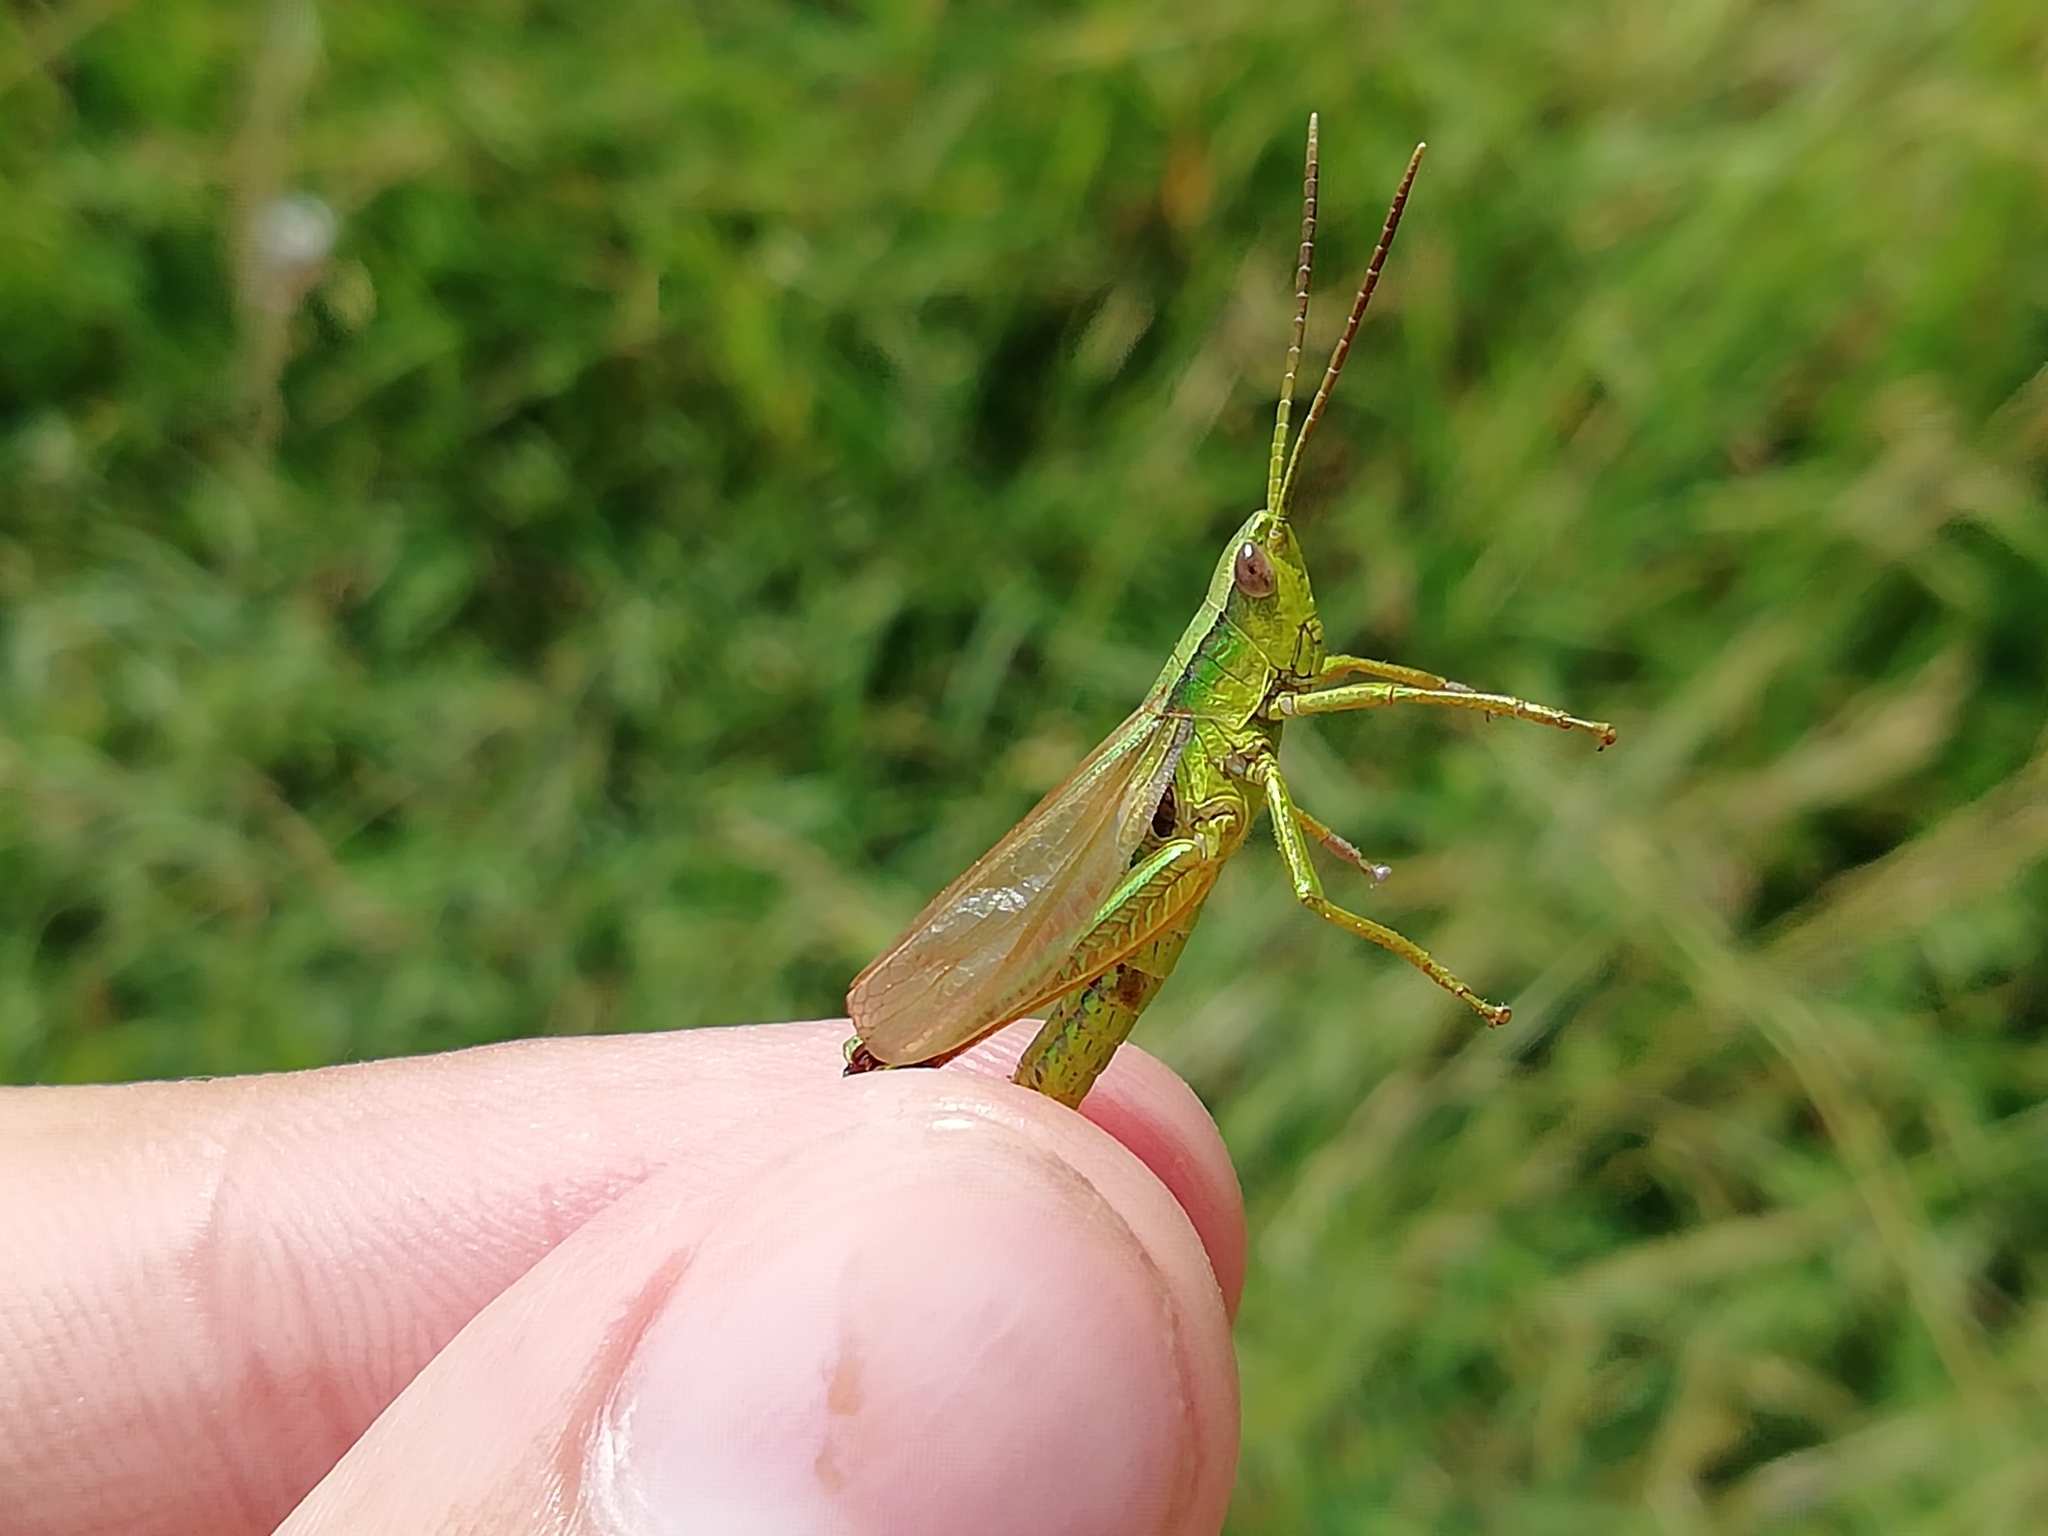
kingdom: Animalia
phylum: Arthropoda
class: Insecta
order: Orthoptera
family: Acrididae
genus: Chrysochraon
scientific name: Chrysochraon dispar
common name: Large gold grasshopper
